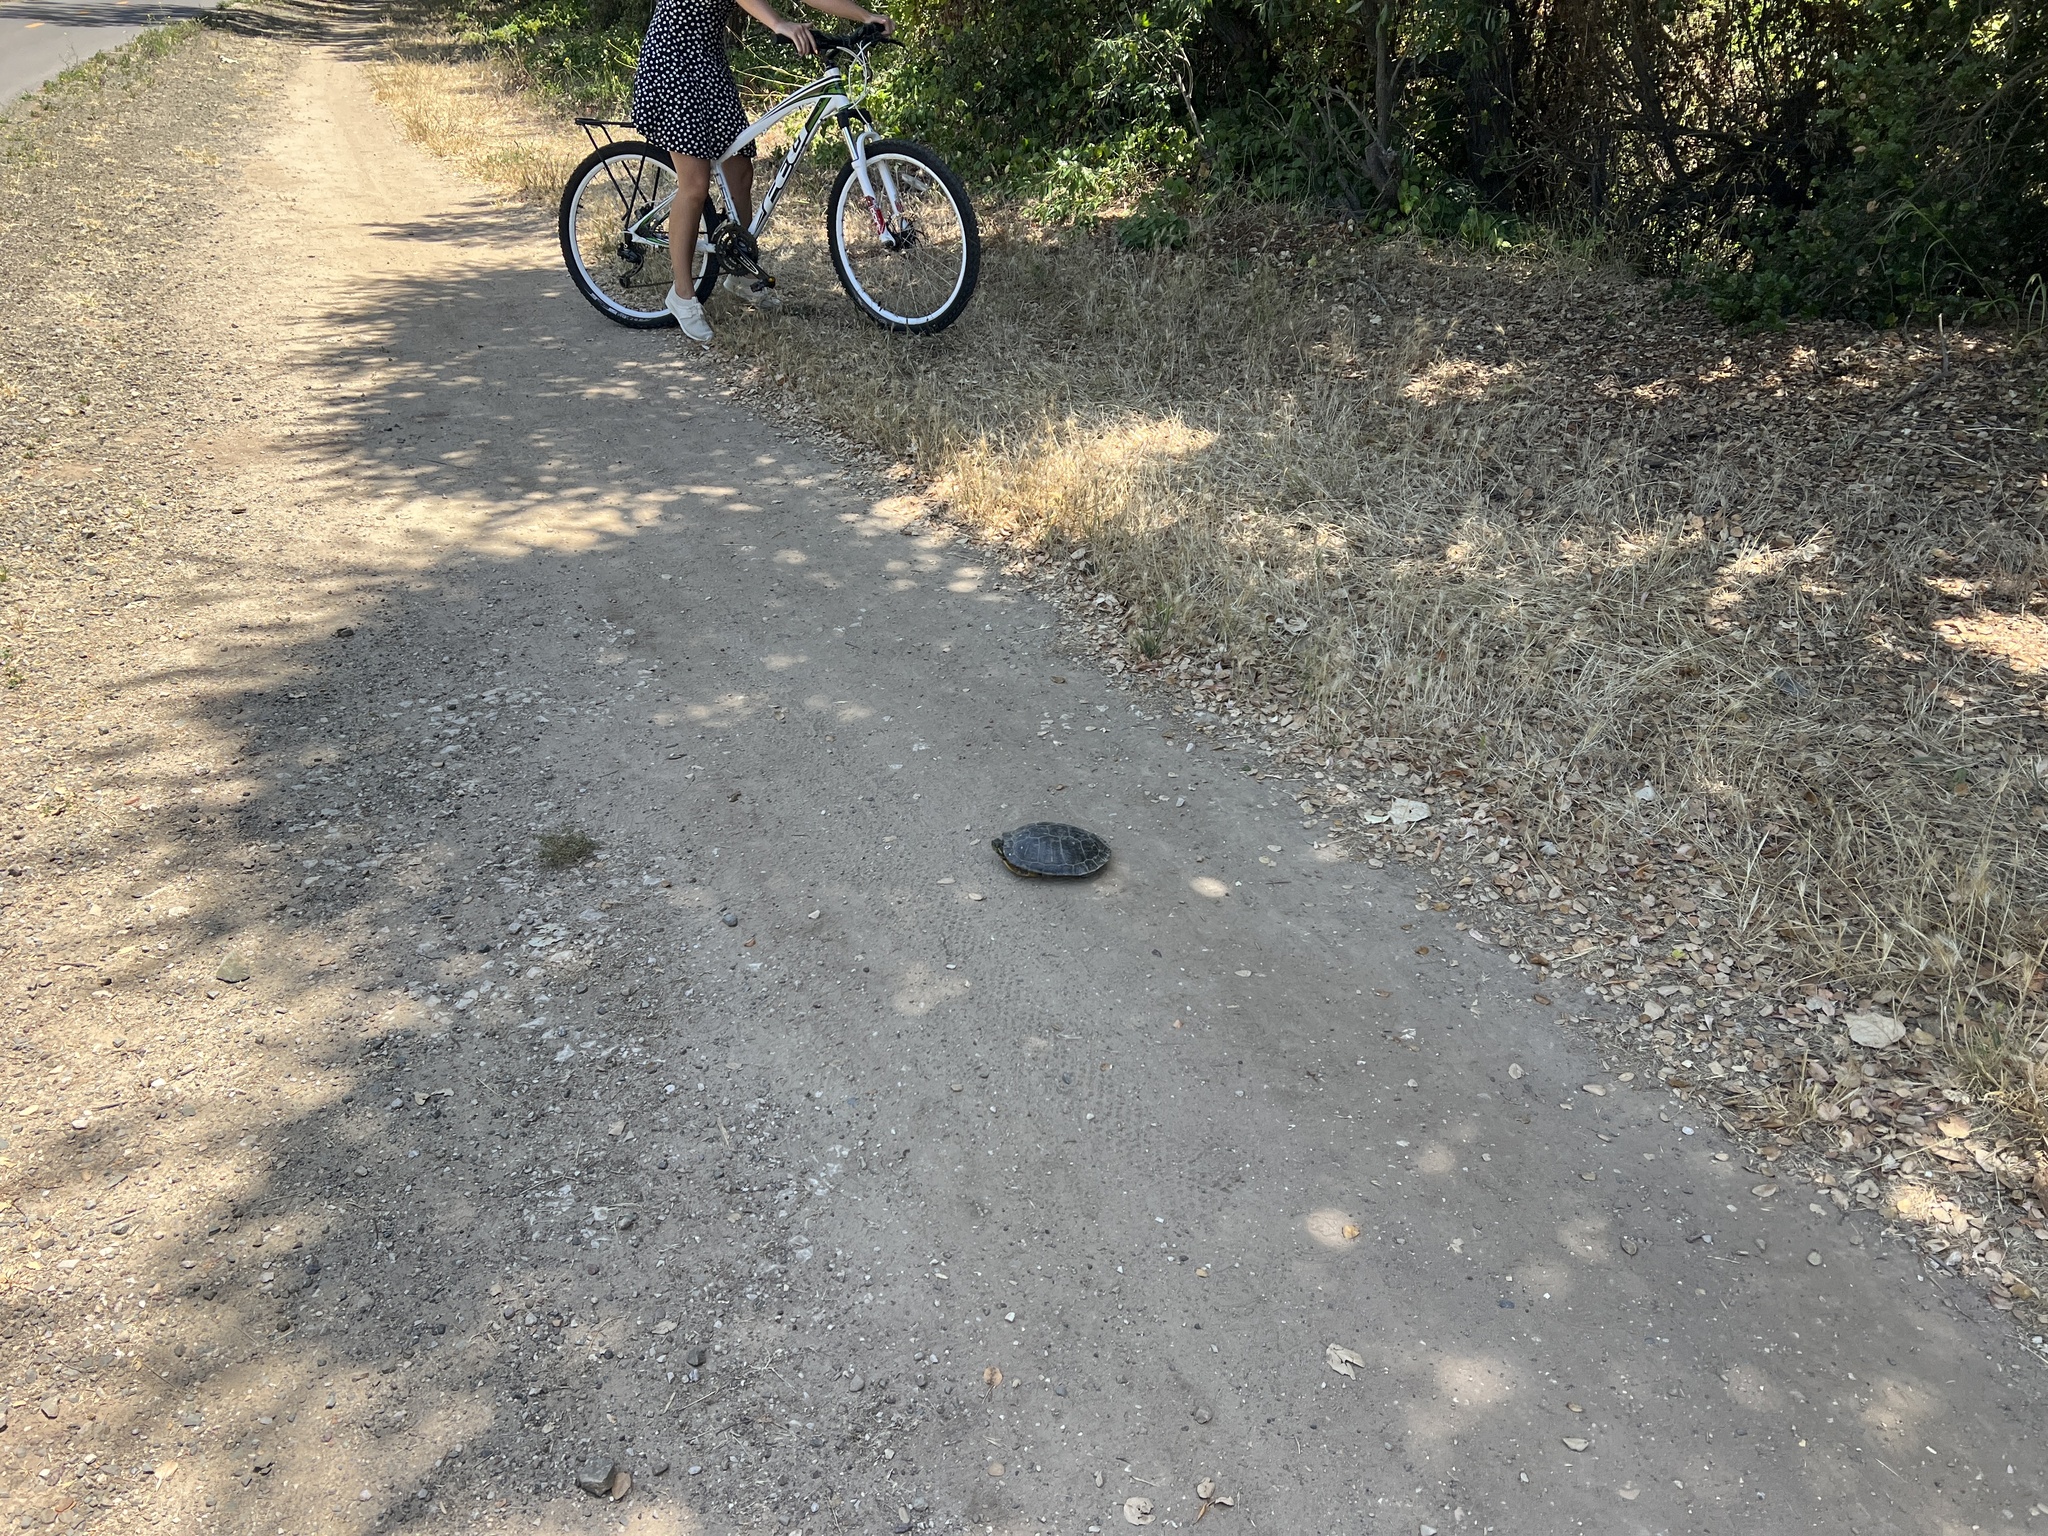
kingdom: Animalia
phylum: Chordata
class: Testudines
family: Emydidae
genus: Trachemys
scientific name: Trachemys scripta
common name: Slider
